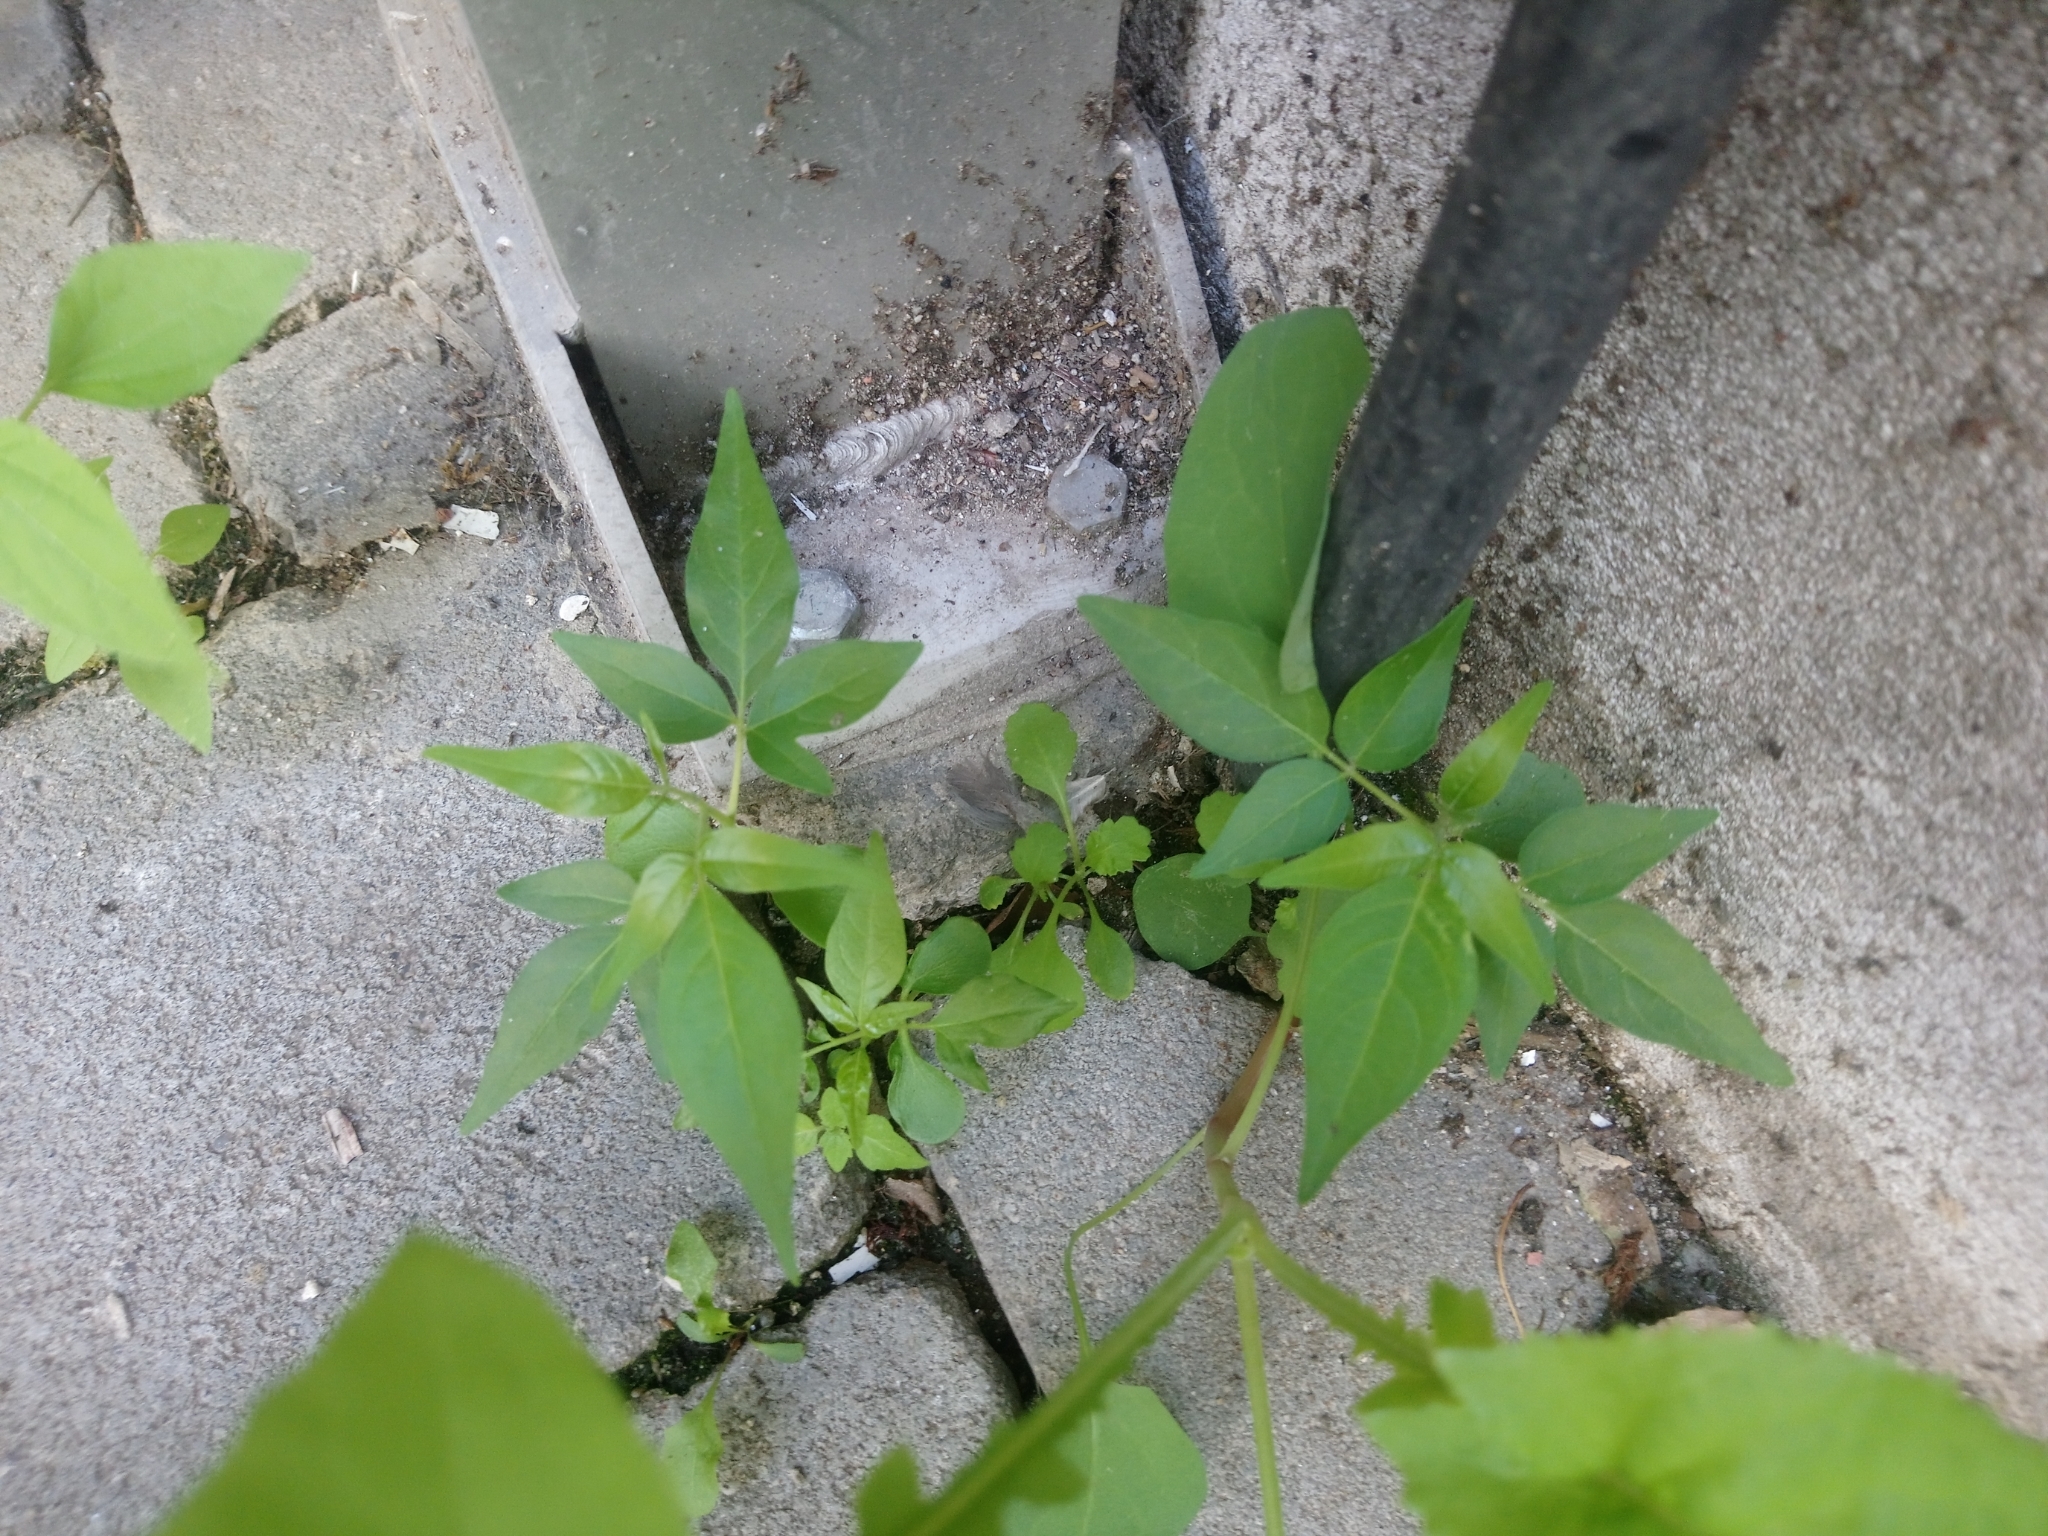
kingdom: Plantae
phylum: Tracheophyta
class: Magnoliopsida
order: Sapindales
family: Simaroubaceae
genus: Ailanthus
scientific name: Ailanthus altissima
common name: Tree-of-heaven
